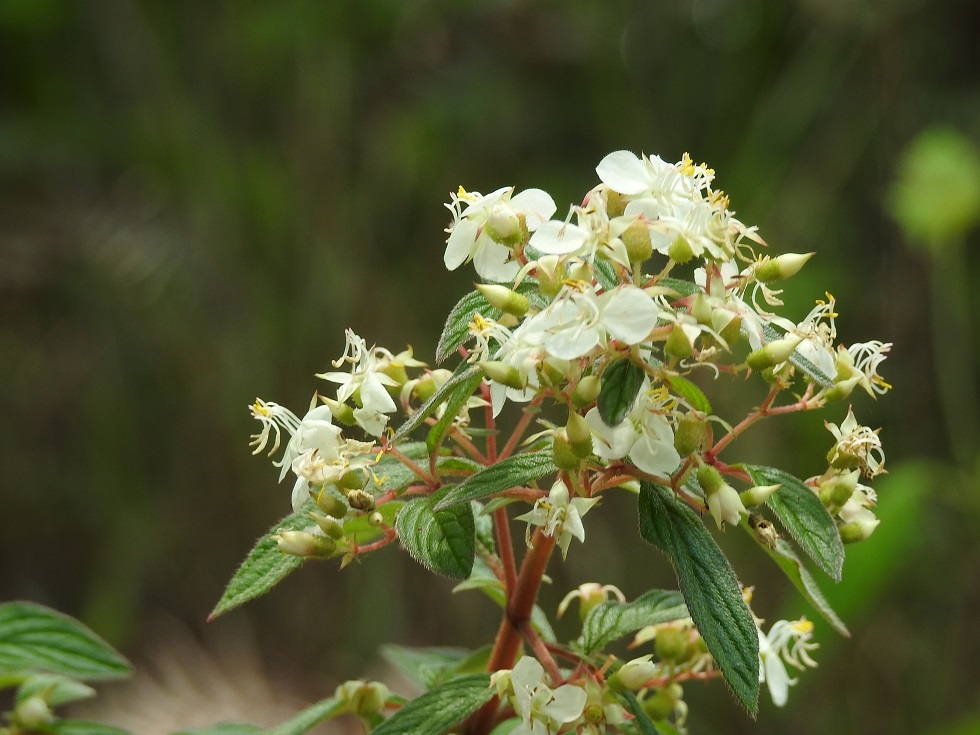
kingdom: Plantae
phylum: Tracheophyta
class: Magnoliopsida
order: Myrtales
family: Melastomataceae
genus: Heterocentron
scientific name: Heterocentron subtriplinervium
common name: Pearl flower
